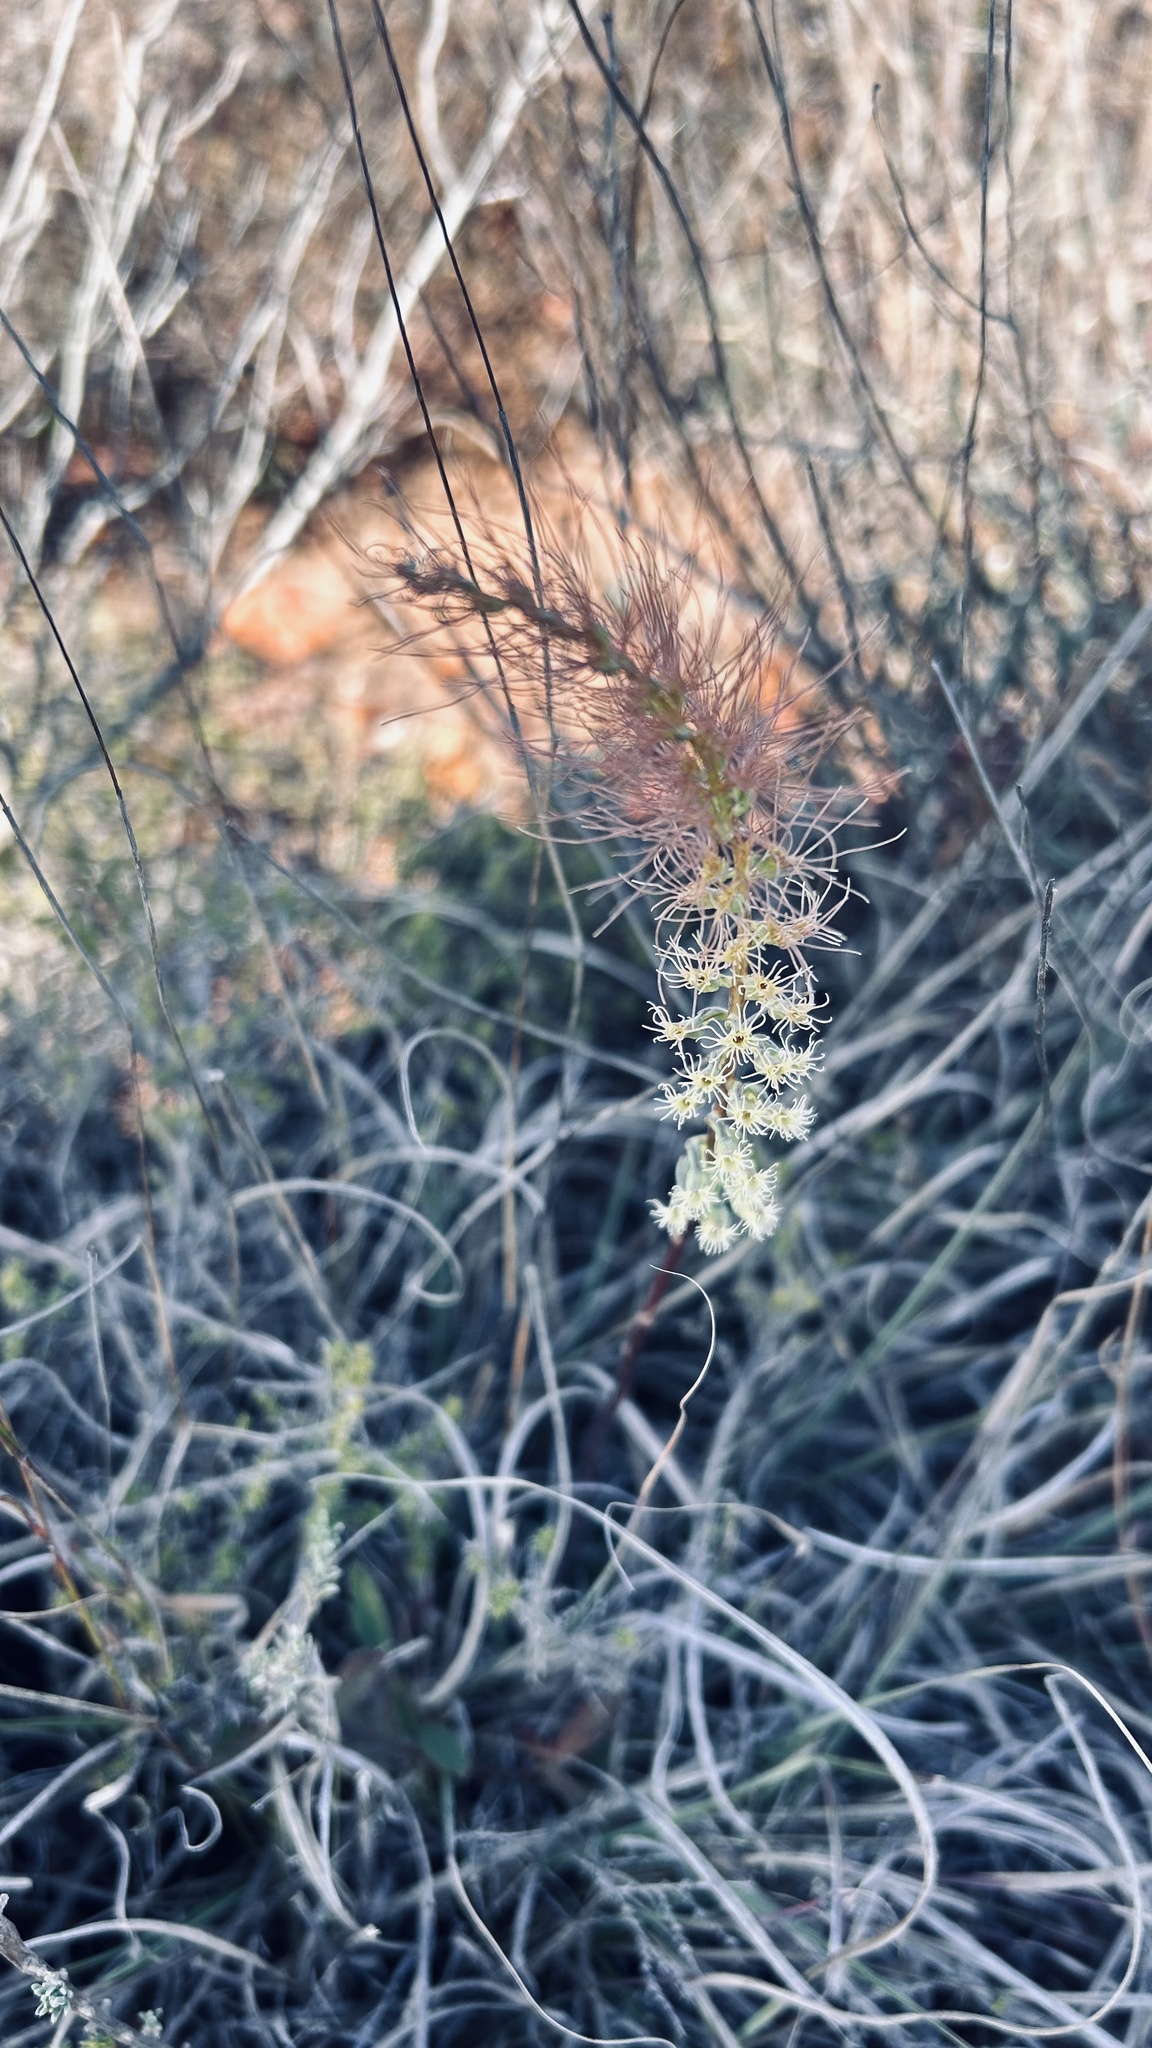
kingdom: Plantae
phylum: Tracheophyta
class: Liliopsida
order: Asparagales
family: Orchidaceae
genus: Holothrix
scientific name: Holothrix burchellii
